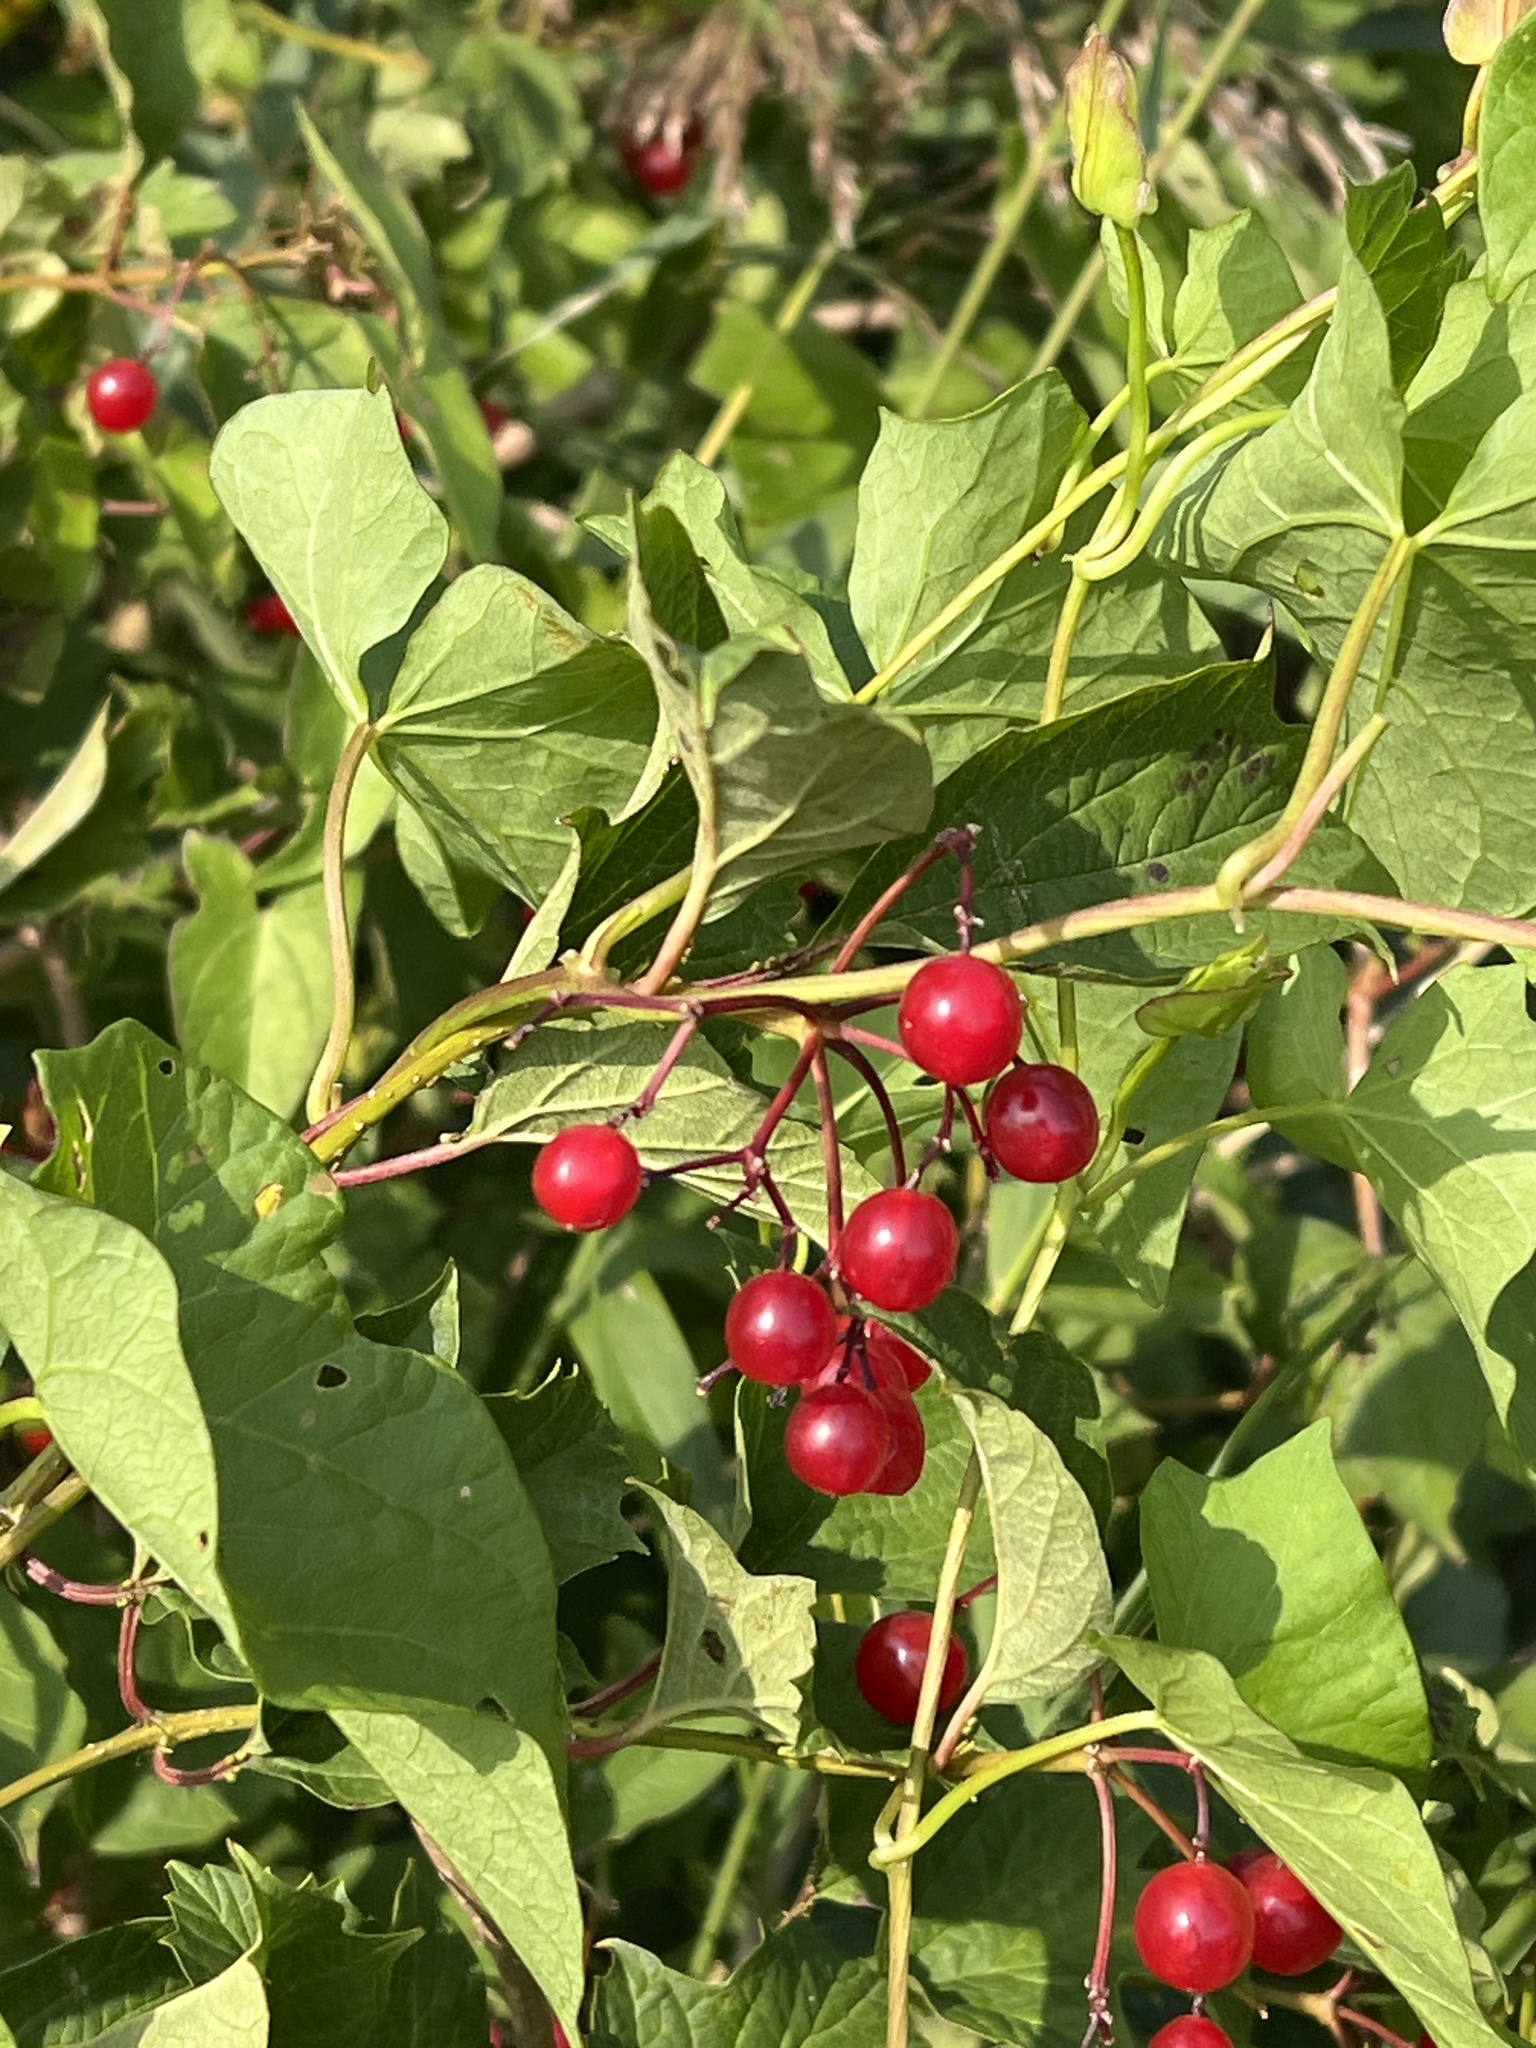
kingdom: Plantae
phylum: Tracheophyta
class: Magnoliopsida
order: Dipsacales
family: Viburnaceae
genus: Viburnum
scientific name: Viburnum opulus
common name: Guelder-rose
